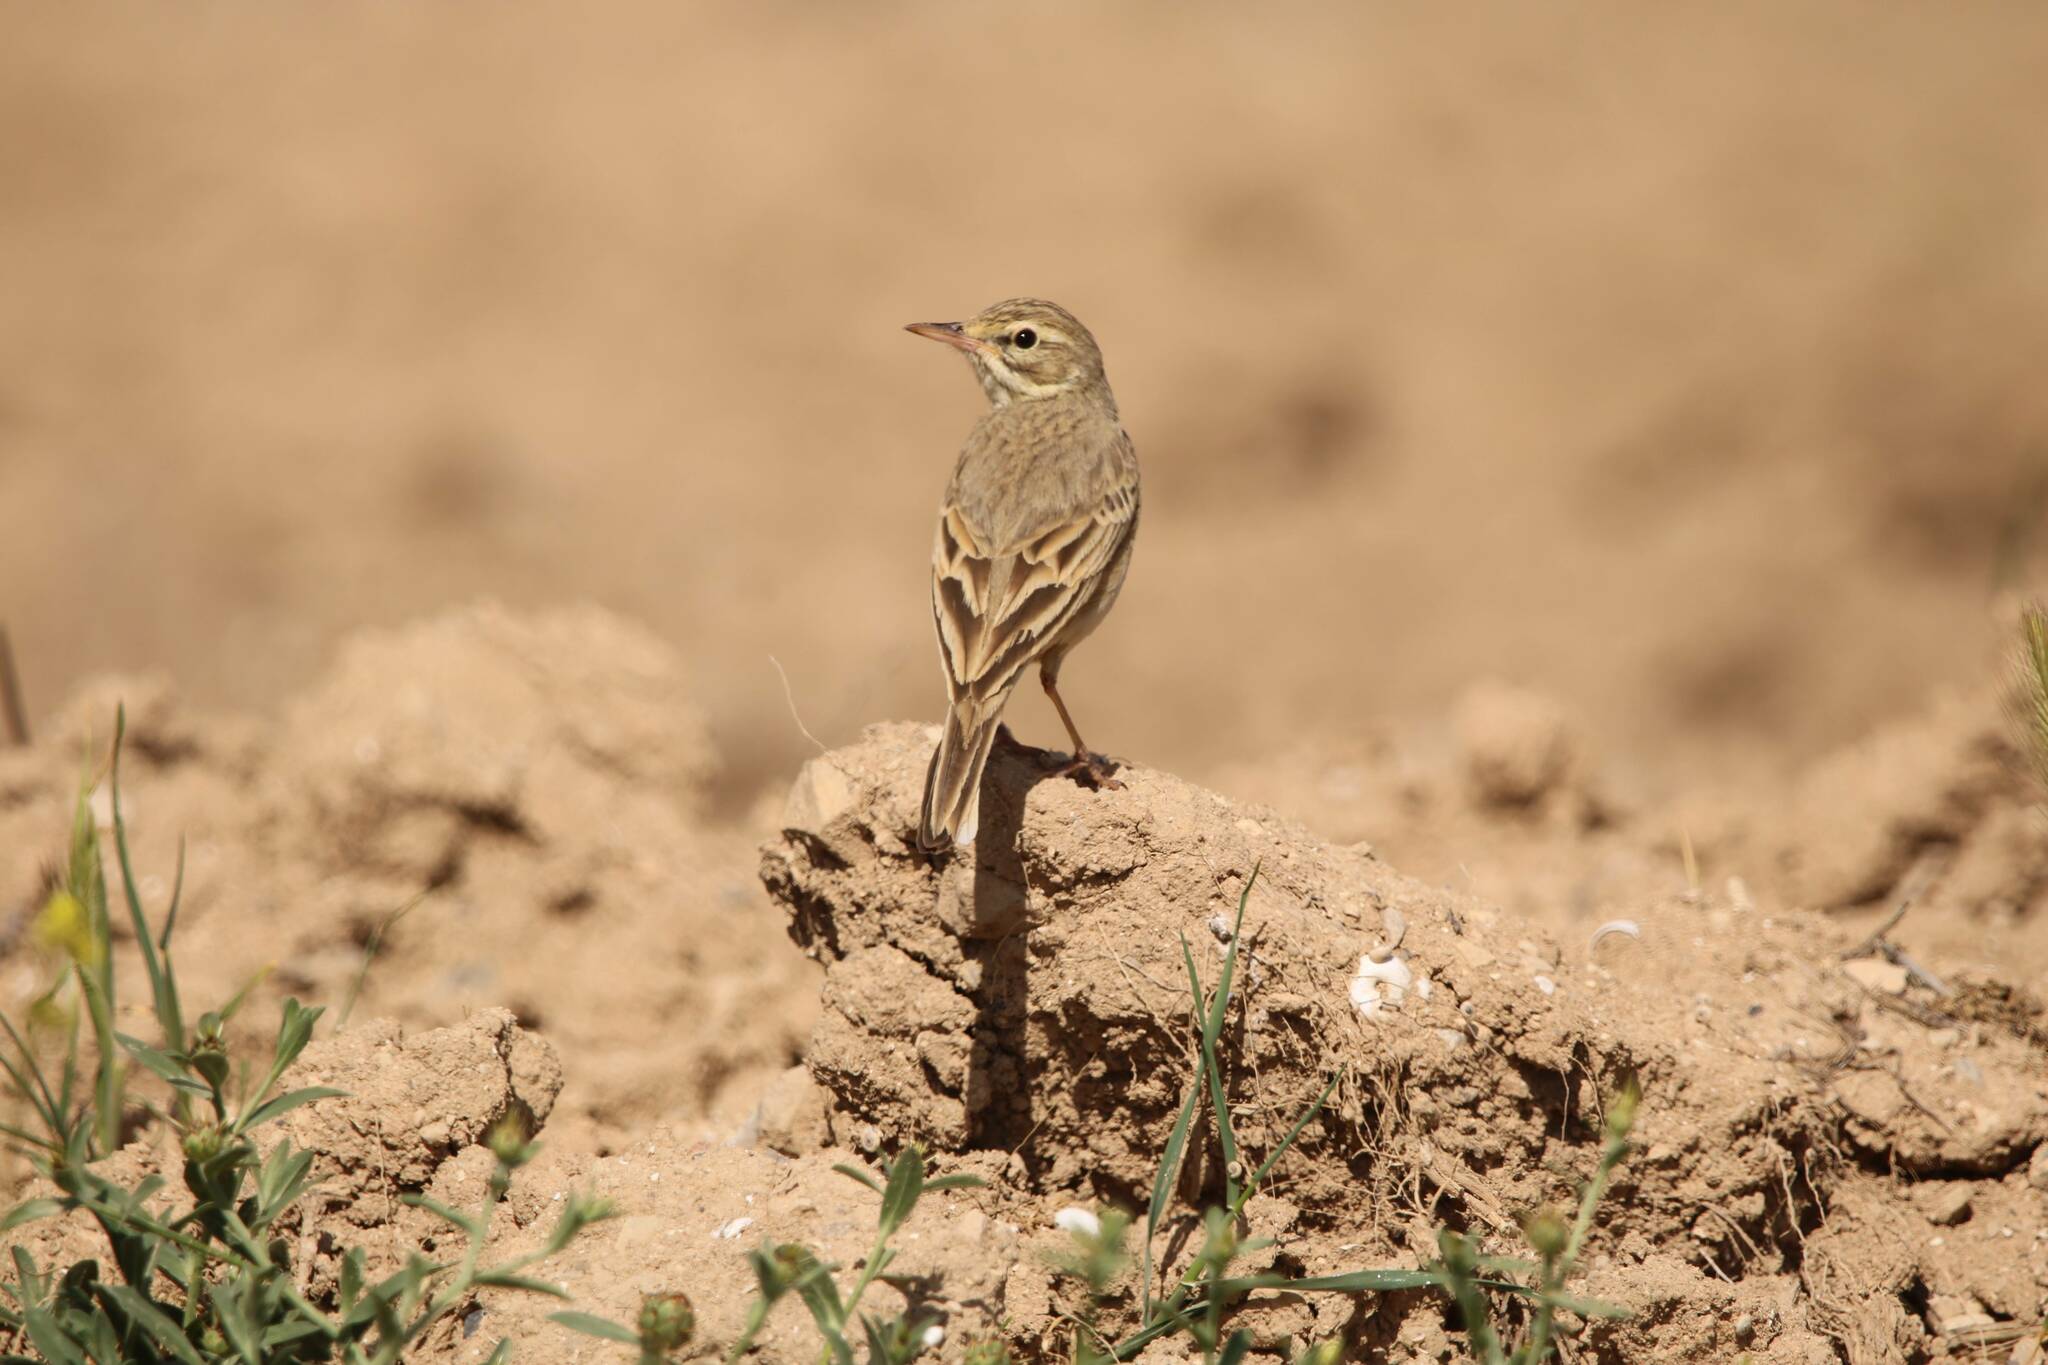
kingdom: Animalia
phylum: Chordata
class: Aves
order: Passeriformes
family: Motacillidae
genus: Anthus
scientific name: Anthus campestris
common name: Tawny pipit
